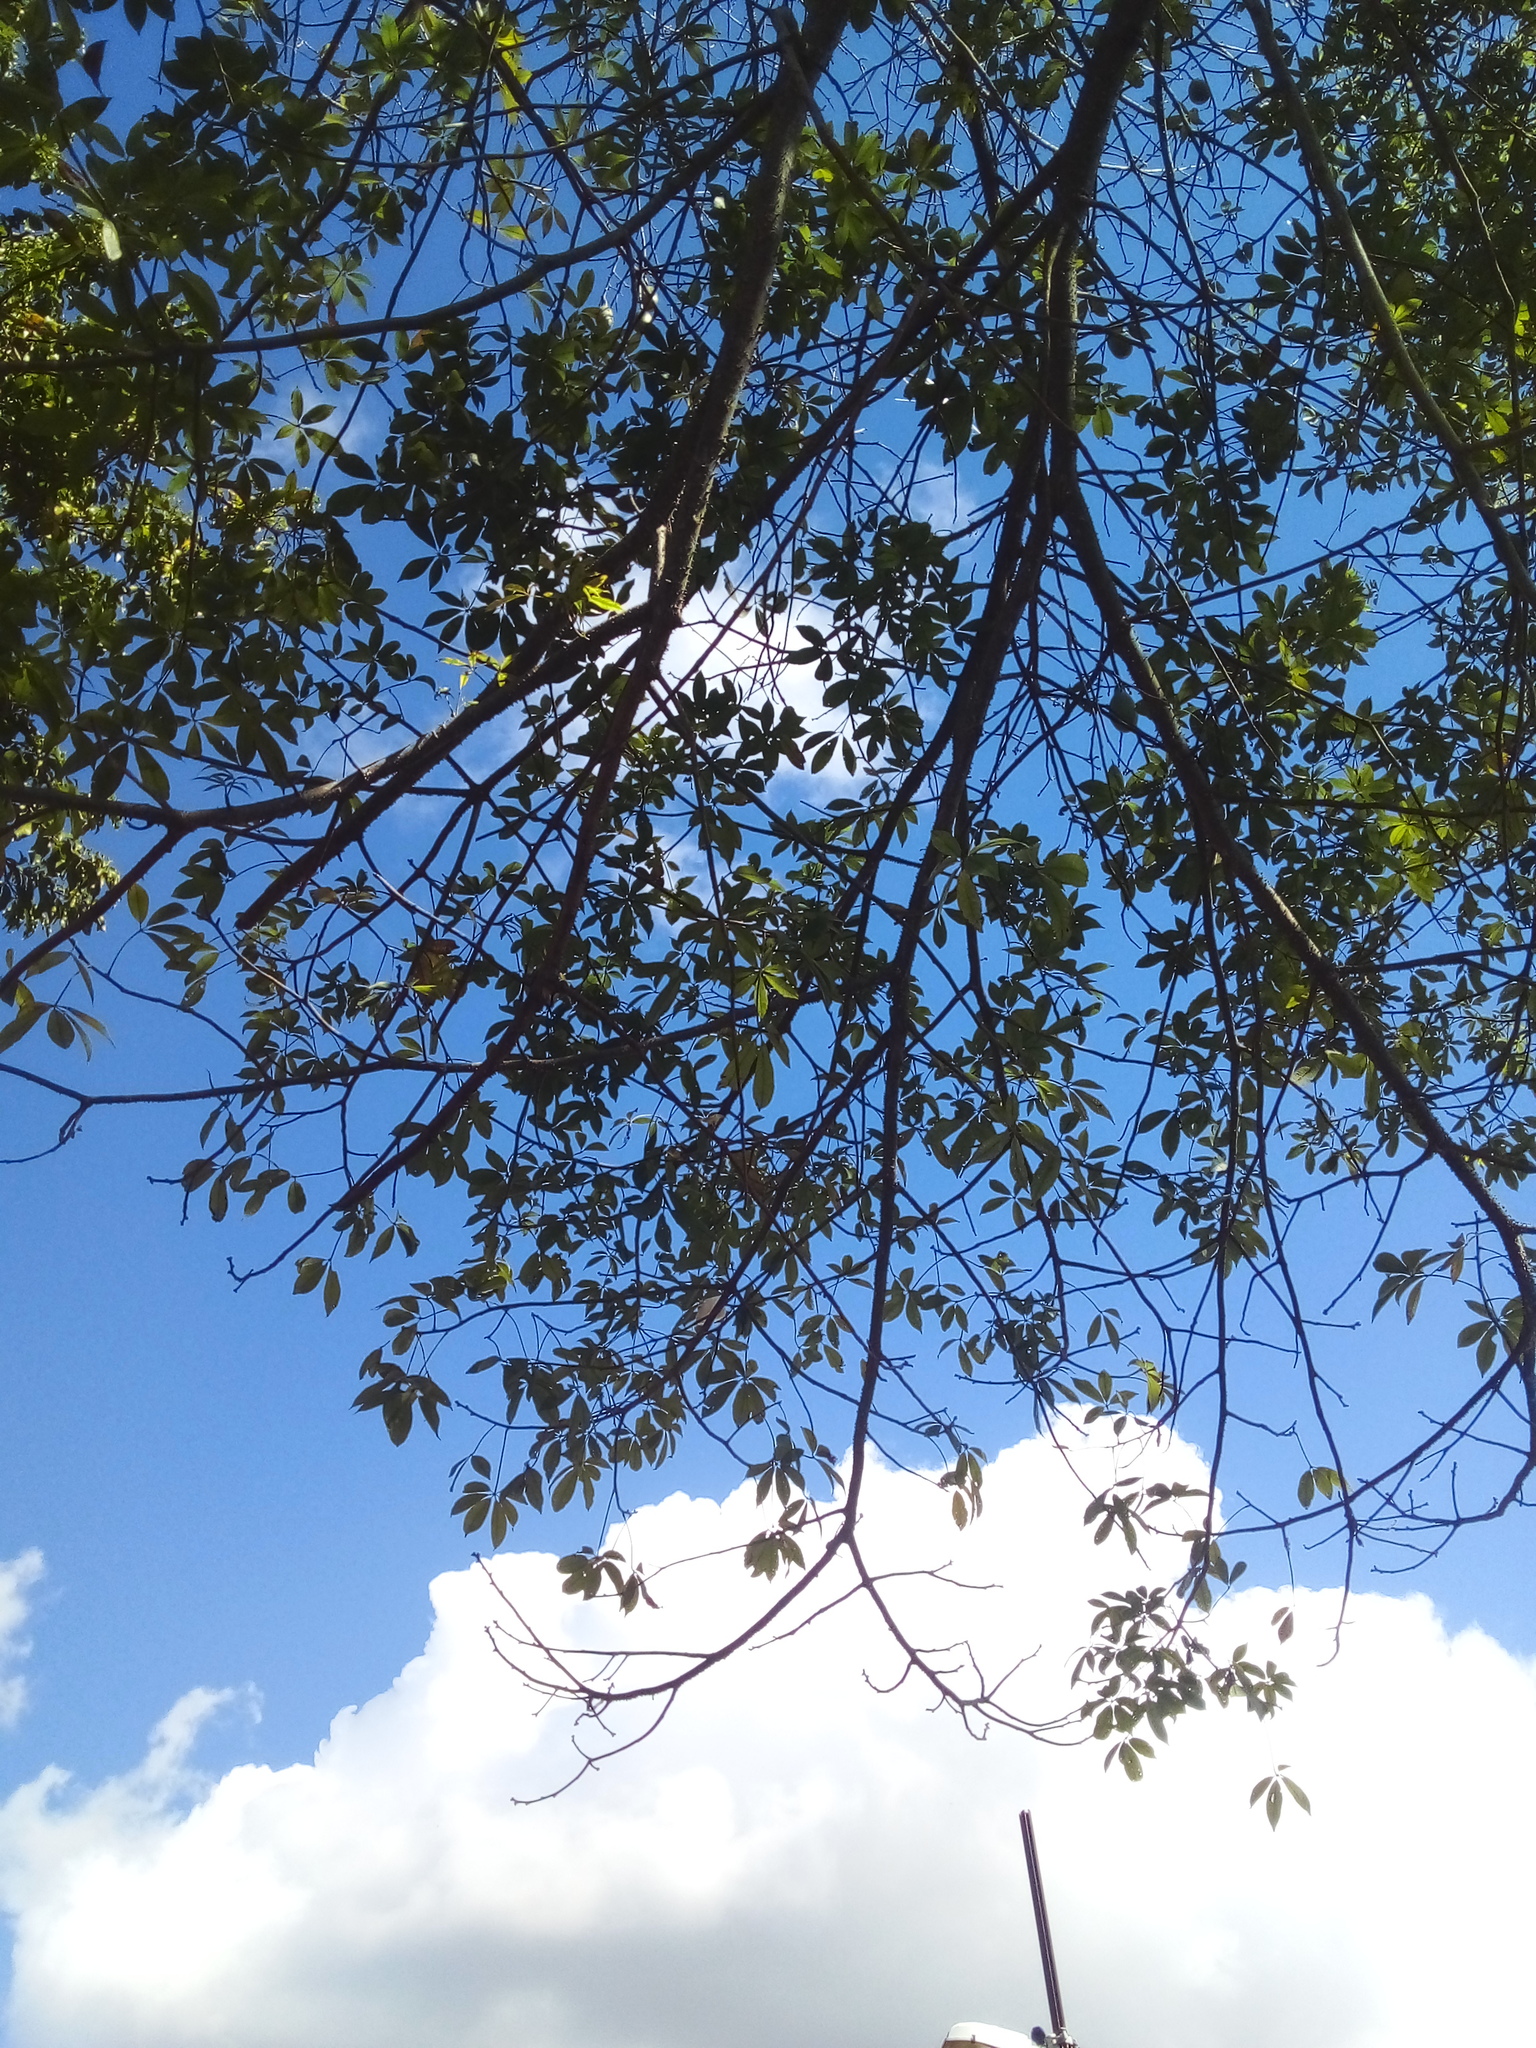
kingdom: Plantae
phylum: Tracheophyta
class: Magnoliopsida
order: Malvales
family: Malvaceae
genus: Ceiba
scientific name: Ceiba speciosa
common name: Silk-floss tree
